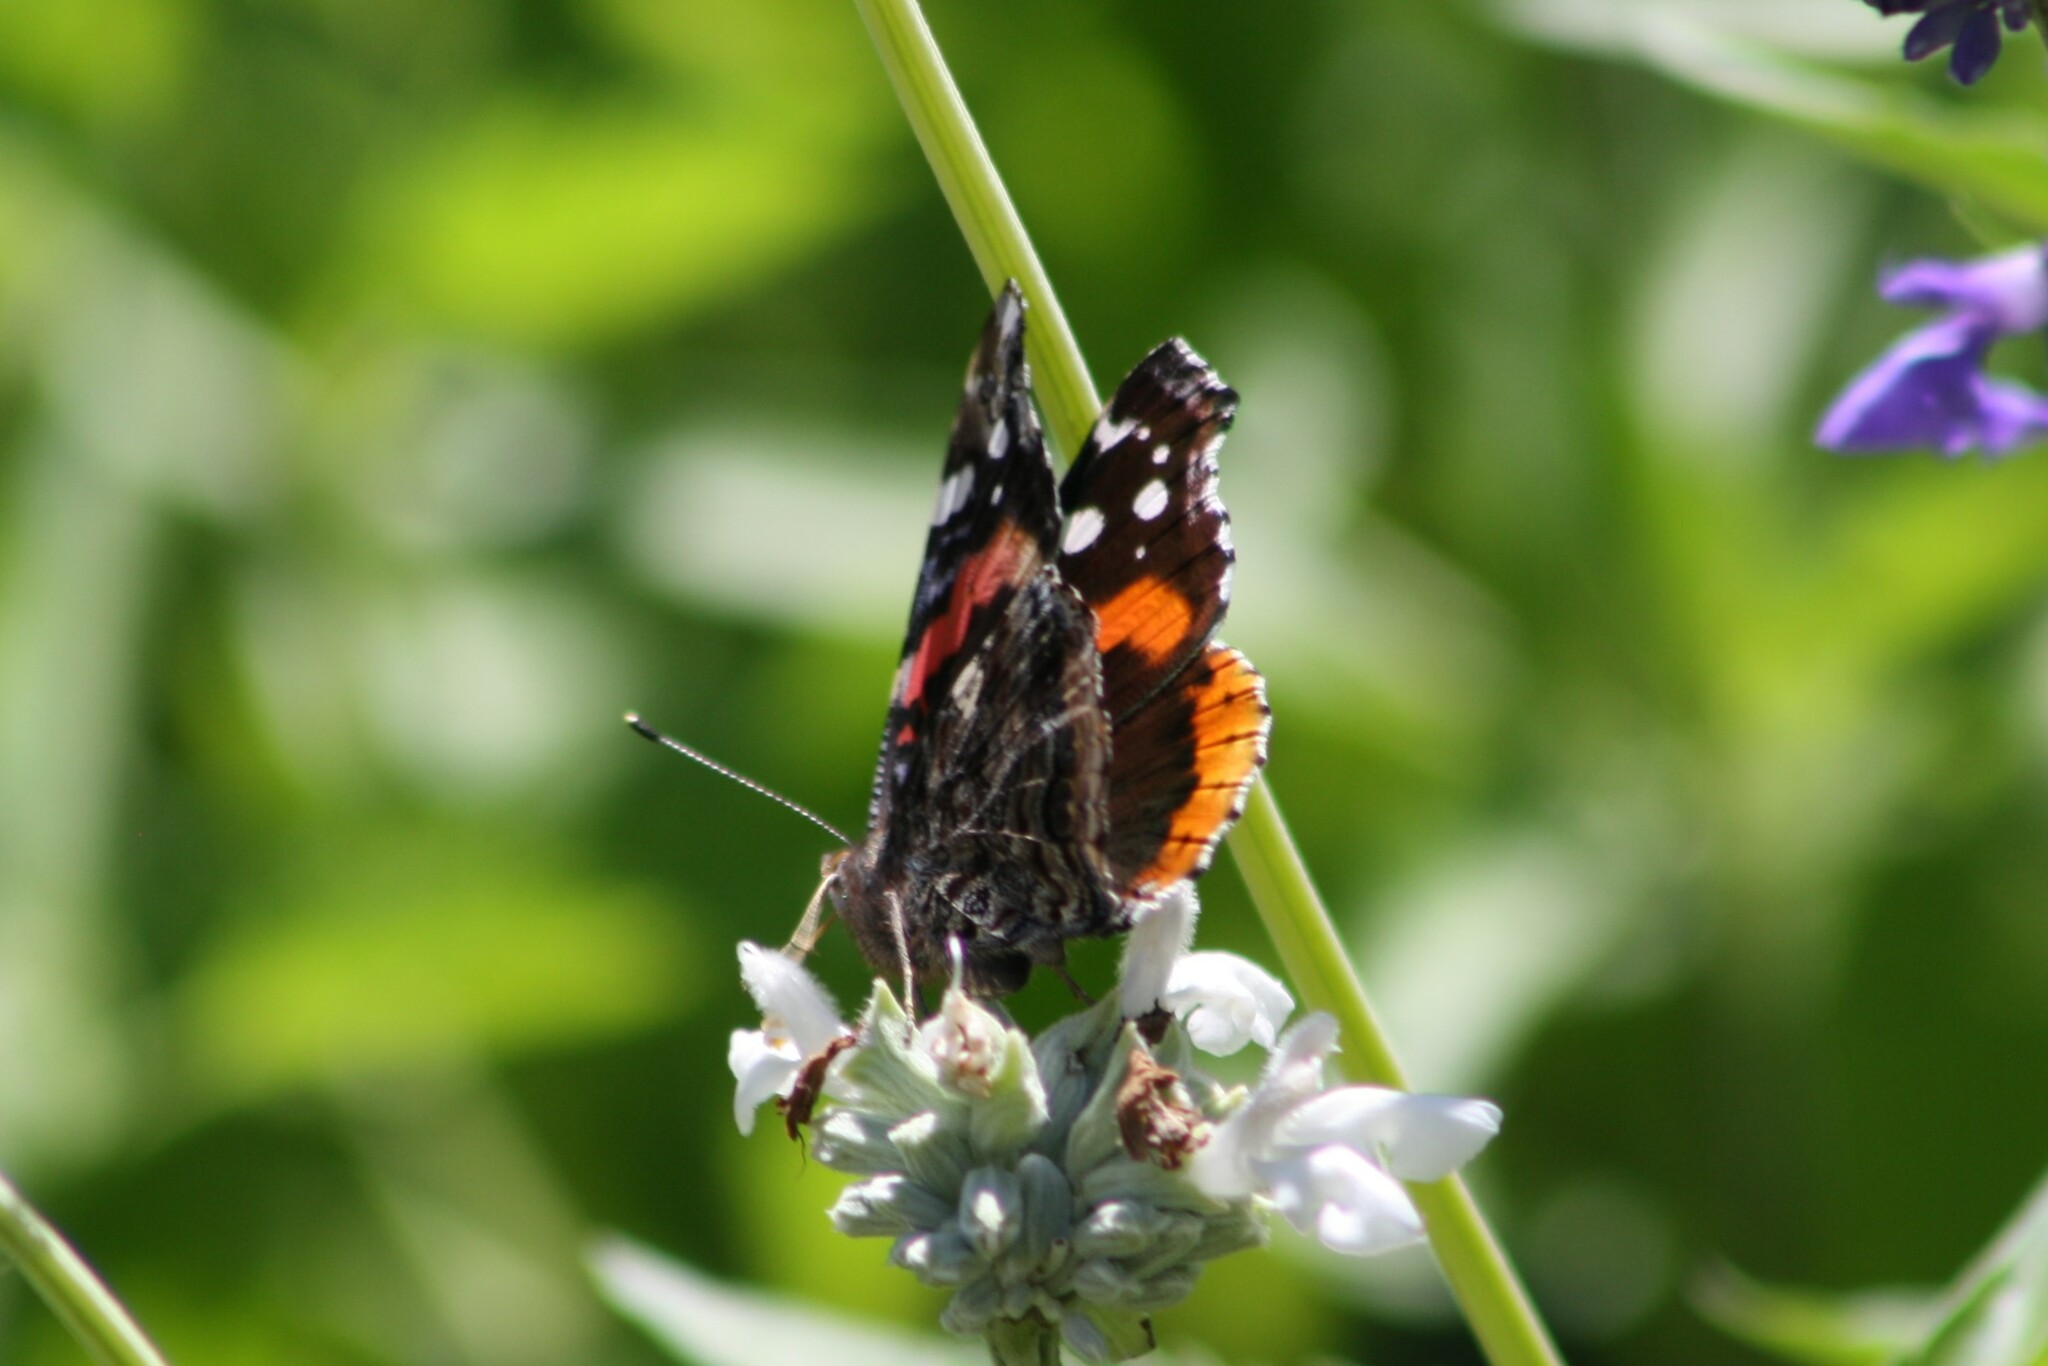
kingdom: Animalia
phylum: Arthropoda
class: Insecta
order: Lepidoptera
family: Nymphalidae
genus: Vanessa
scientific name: Vanessa atalanta
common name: Red admiral
